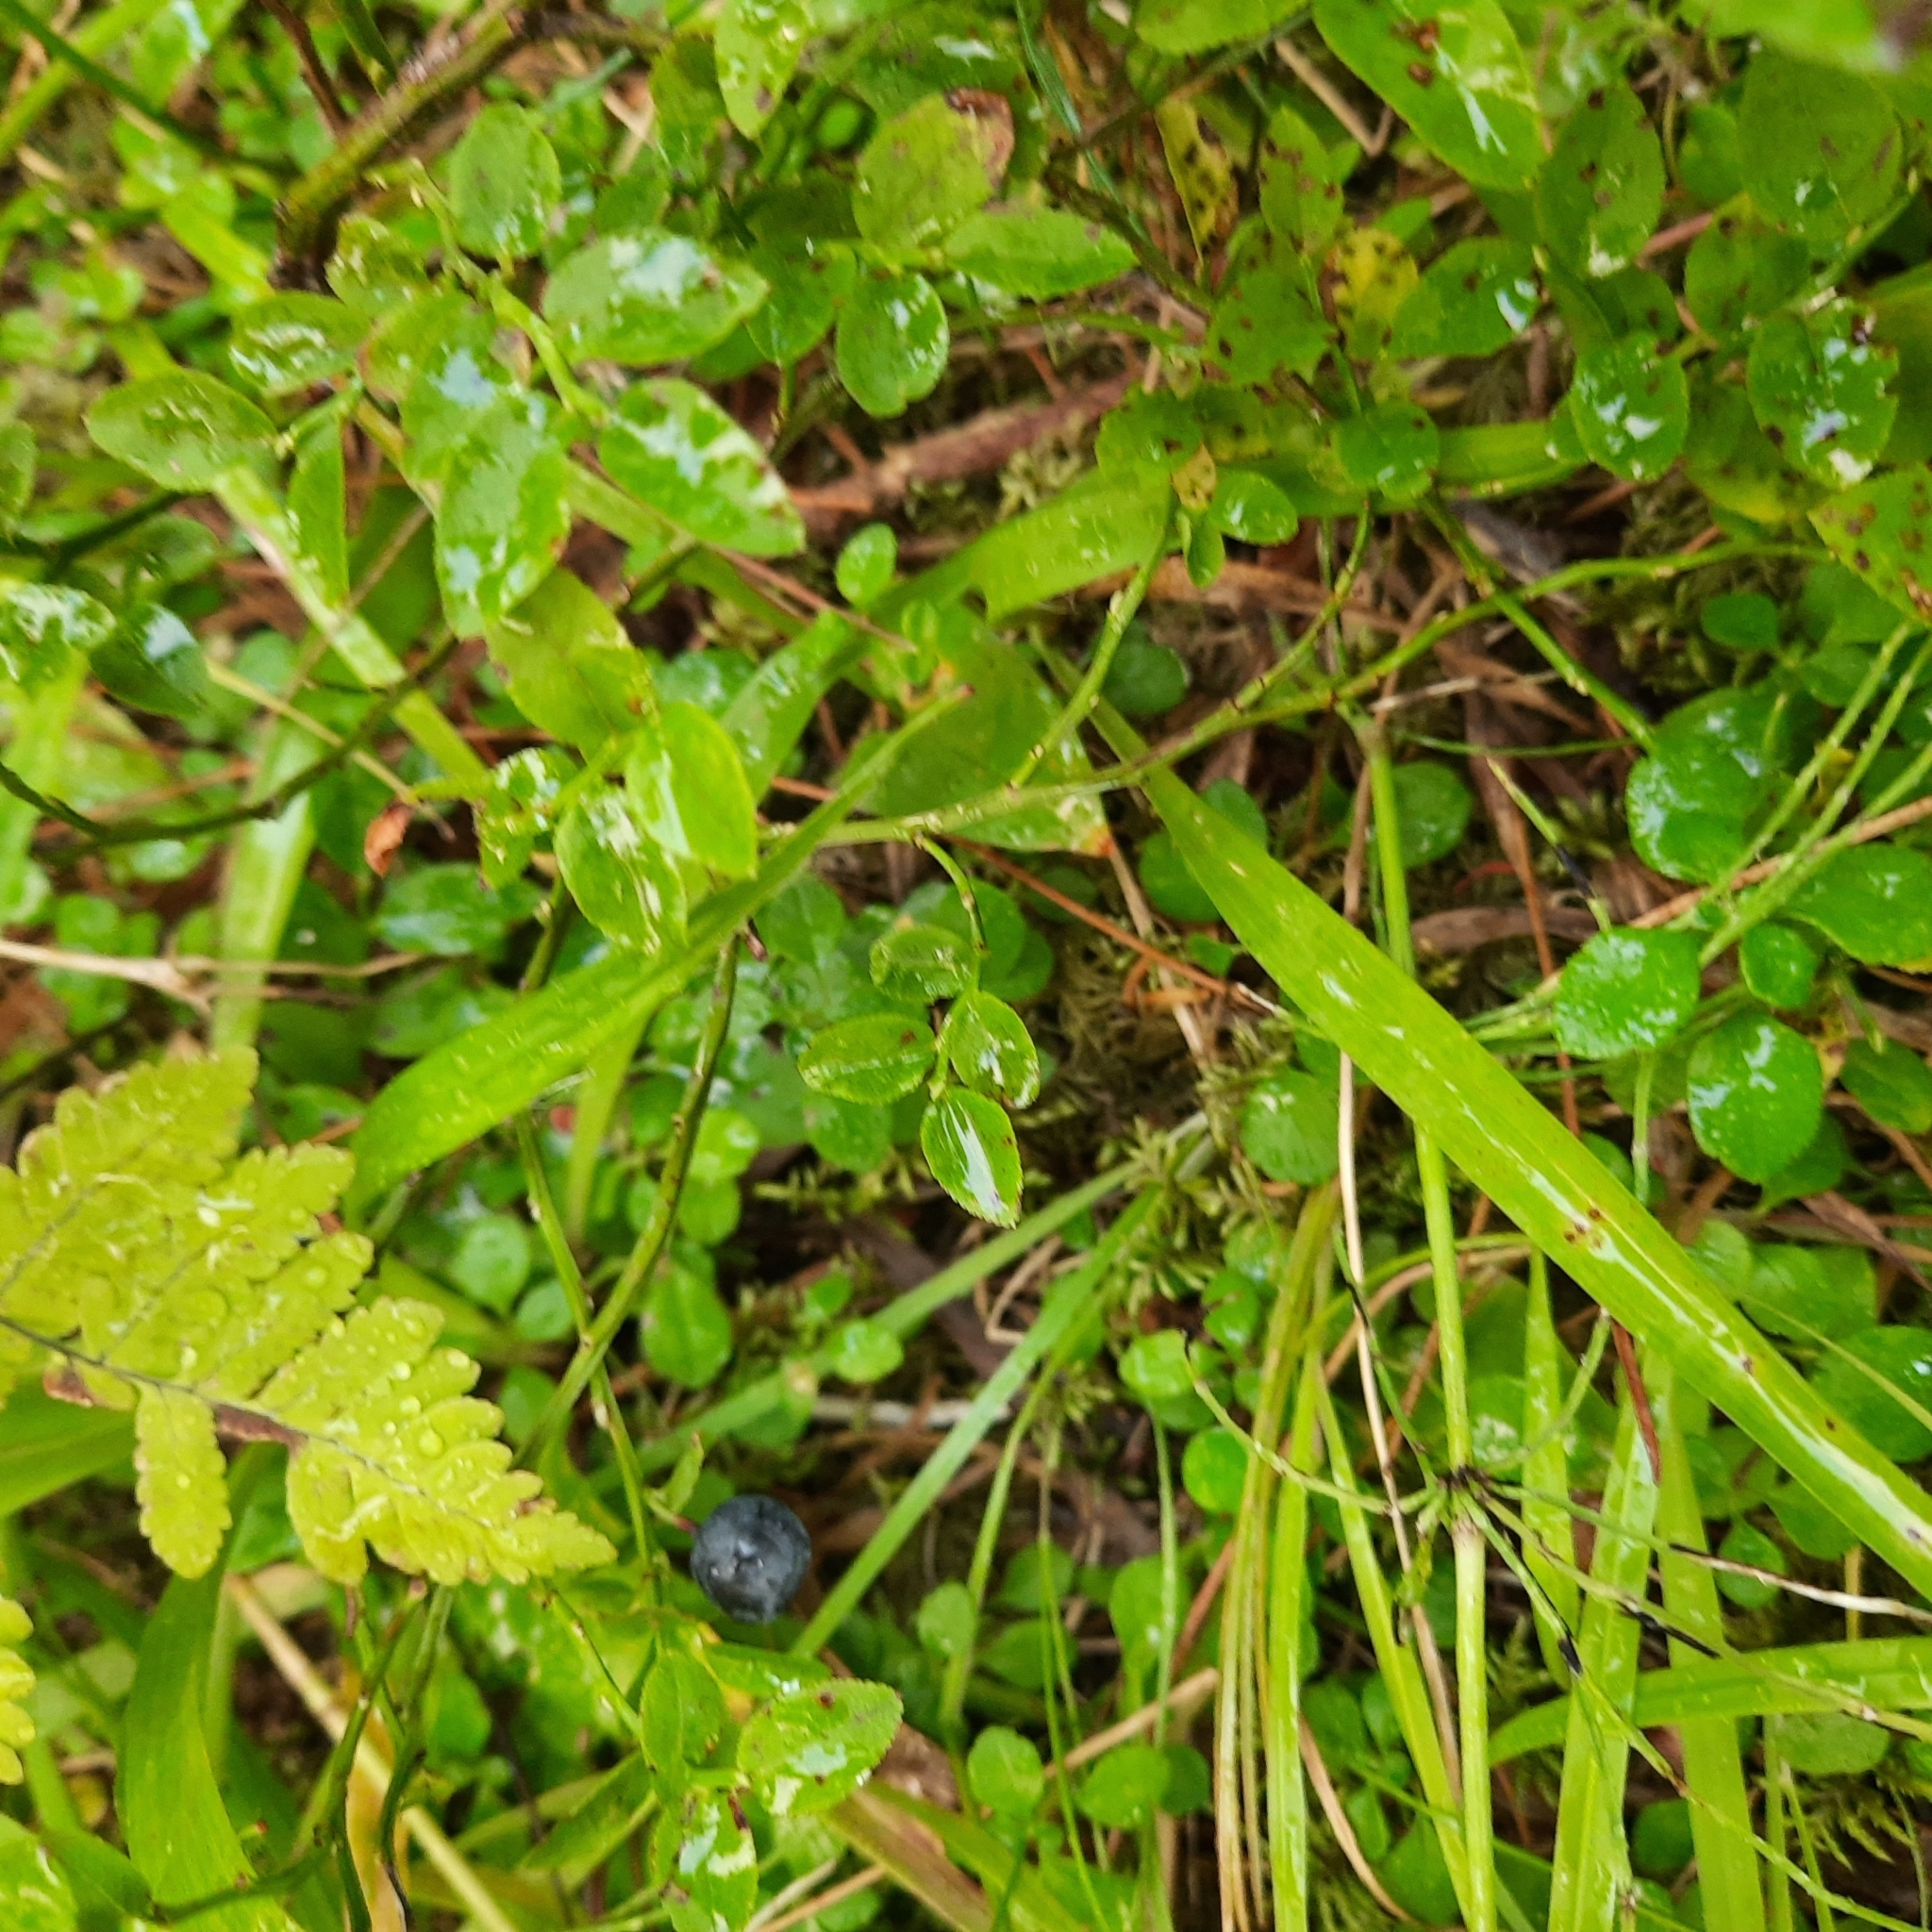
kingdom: Plantae
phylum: Tracheophyta
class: Magnoliopsida
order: Ericales
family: Ericaceae
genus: Vaccinium
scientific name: Vaccinium myrtillus
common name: Bilberry
